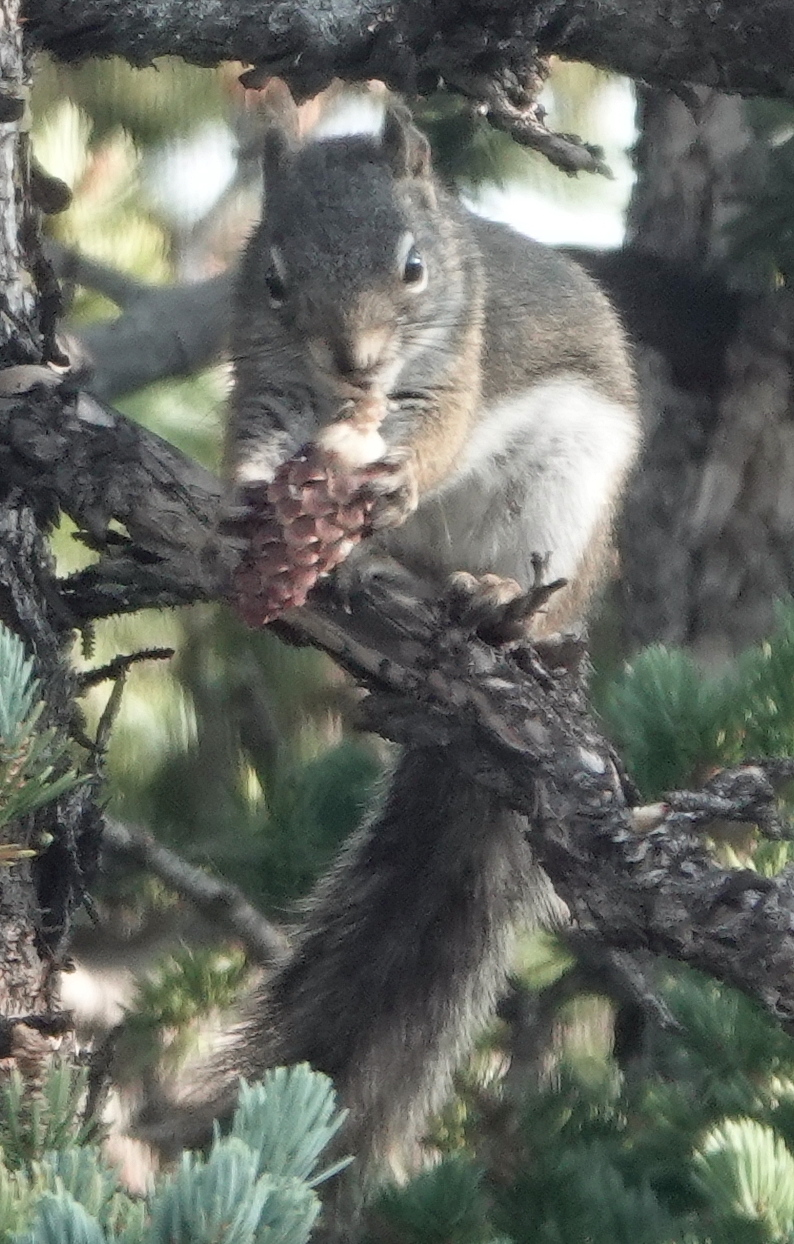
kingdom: Animalia
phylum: Chordata
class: Mammalia
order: Rodentia
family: Sciuridae
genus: Tamiasciurus
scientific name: Tamiasciurus hudsonicus
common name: Red squirrel
